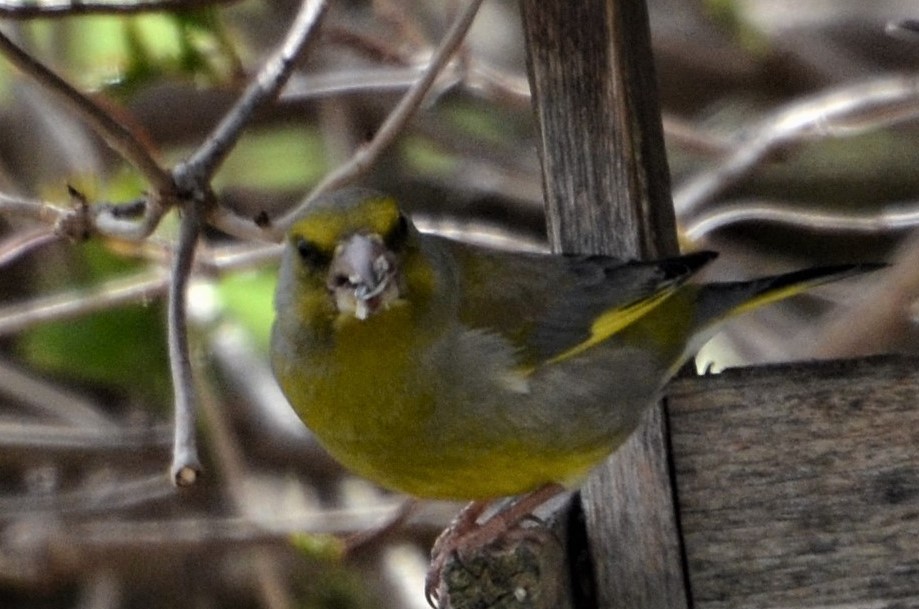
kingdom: Plantae
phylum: Tracheophyta
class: Liliopsida
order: Poales
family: Poaceae
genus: Chloris
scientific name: Chloris chloris
